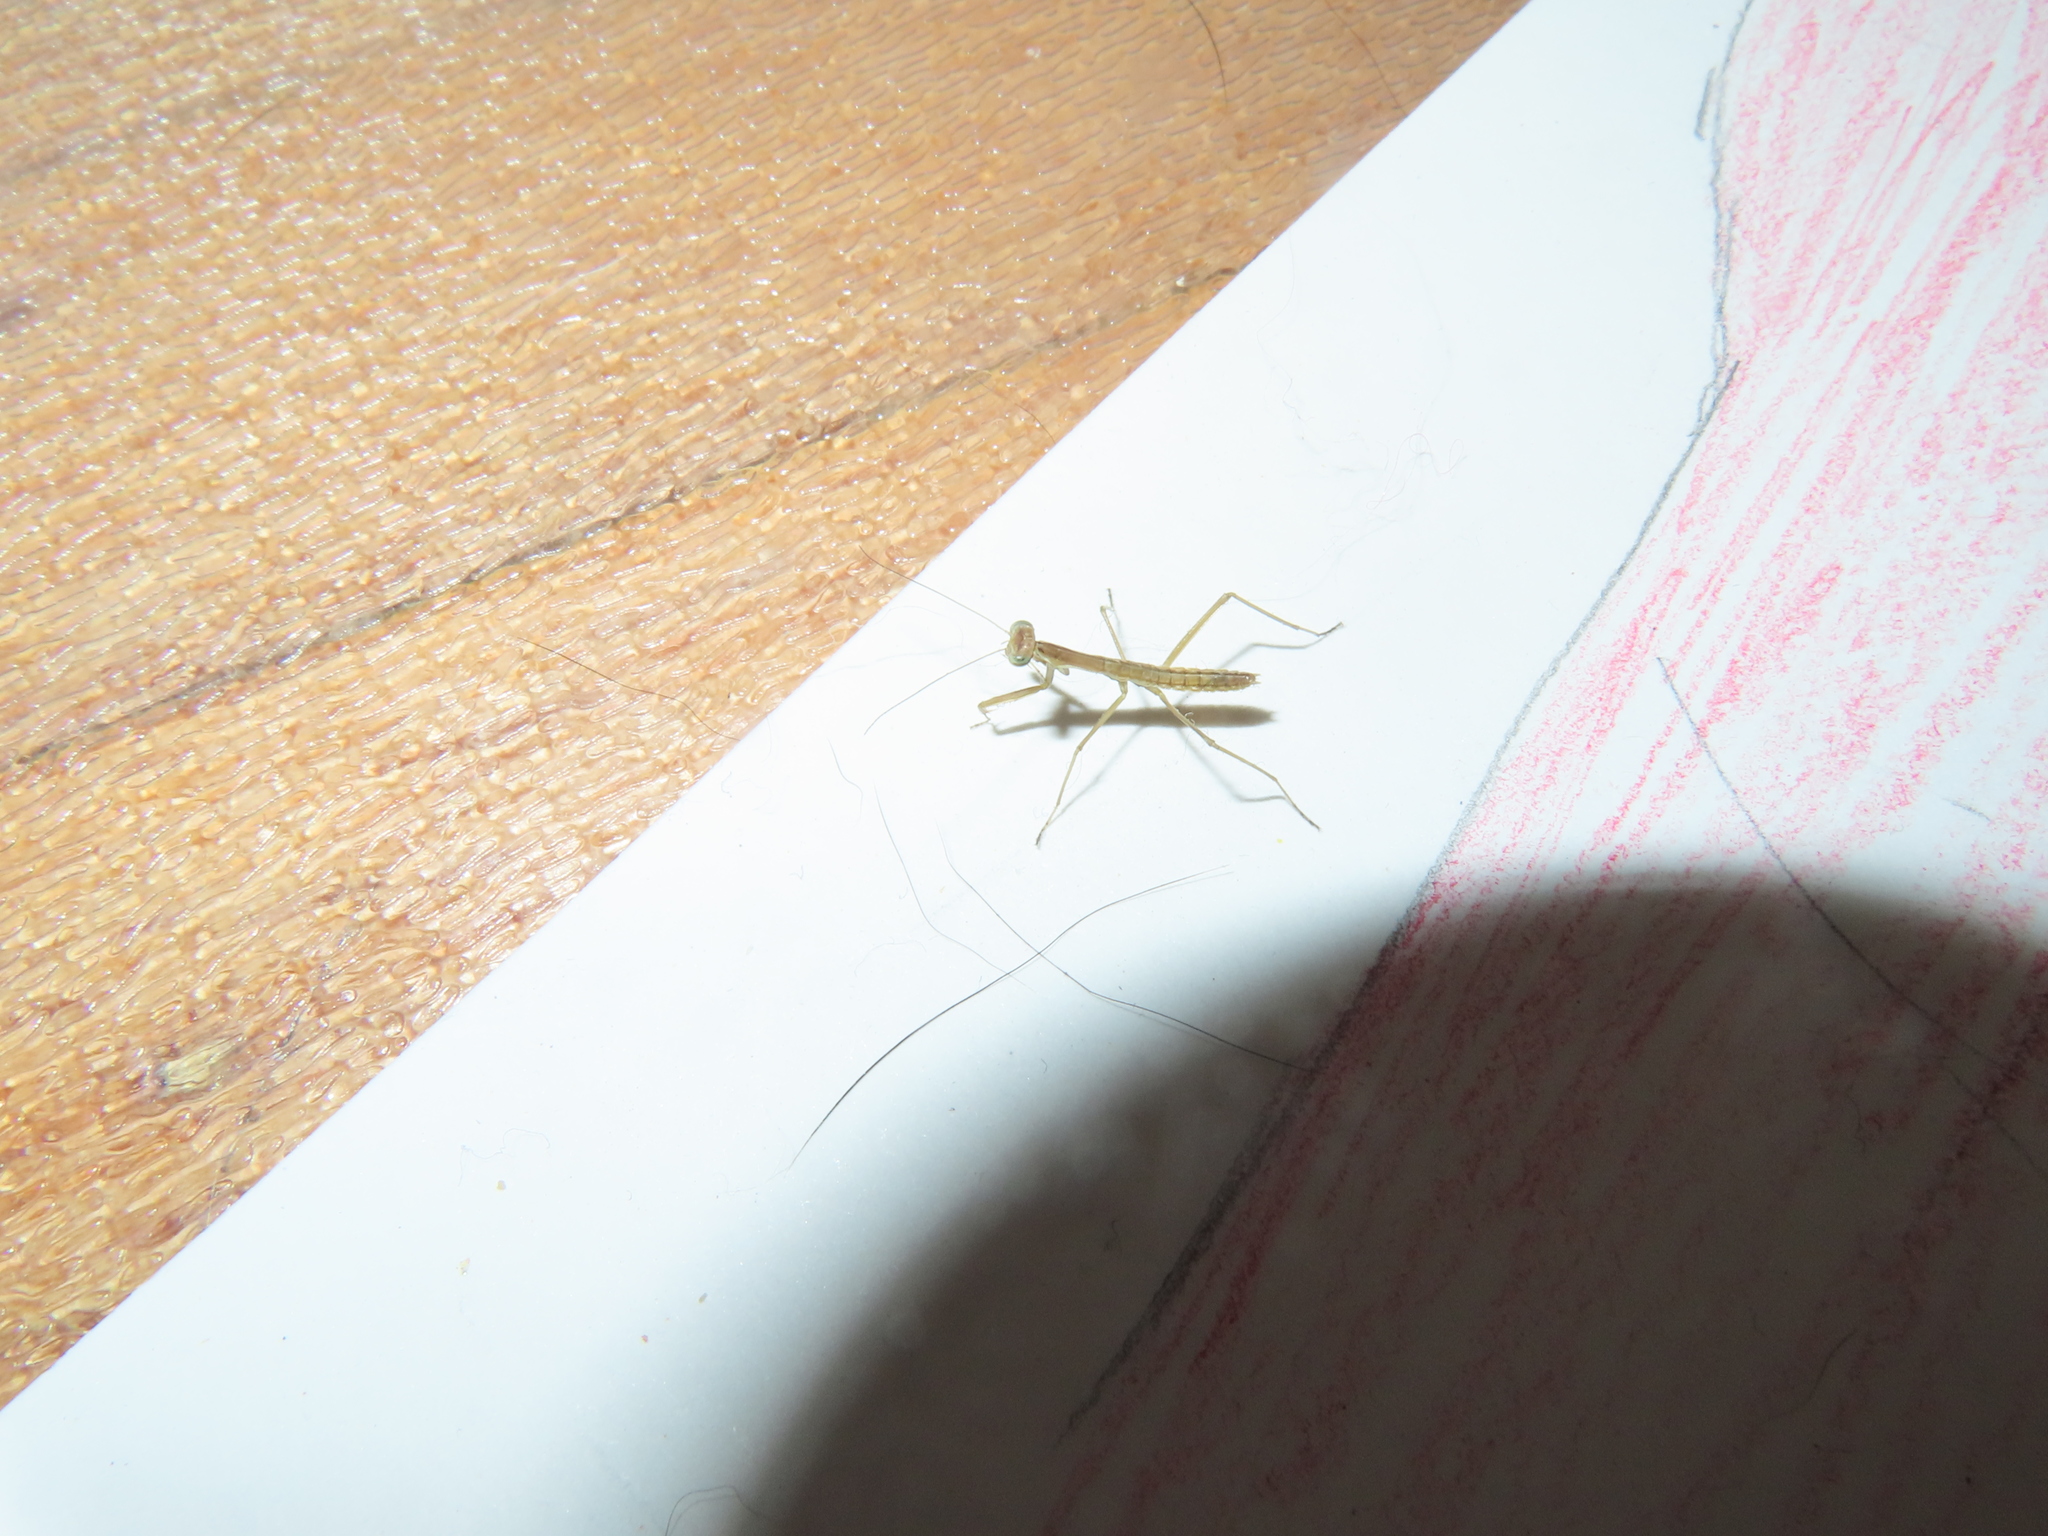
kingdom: Animalia
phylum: Arthropoda
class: Insecta
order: Mantodea
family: Mantidae
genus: Tenodera
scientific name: Tenodera sinensis
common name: Chinese mantis
